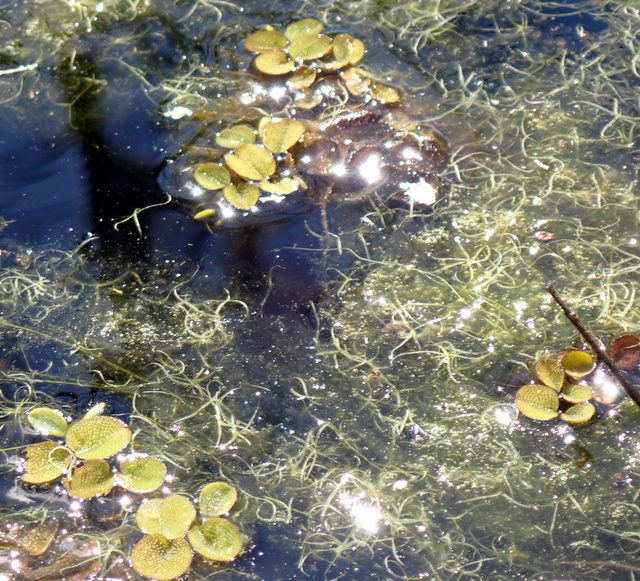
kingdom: Plantae
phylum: Tracheophyta
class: Polypodiopsida
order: Salviniales
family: Salviniaceae
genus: Salvinia
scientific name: Salvinia minima
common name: Water spangles
